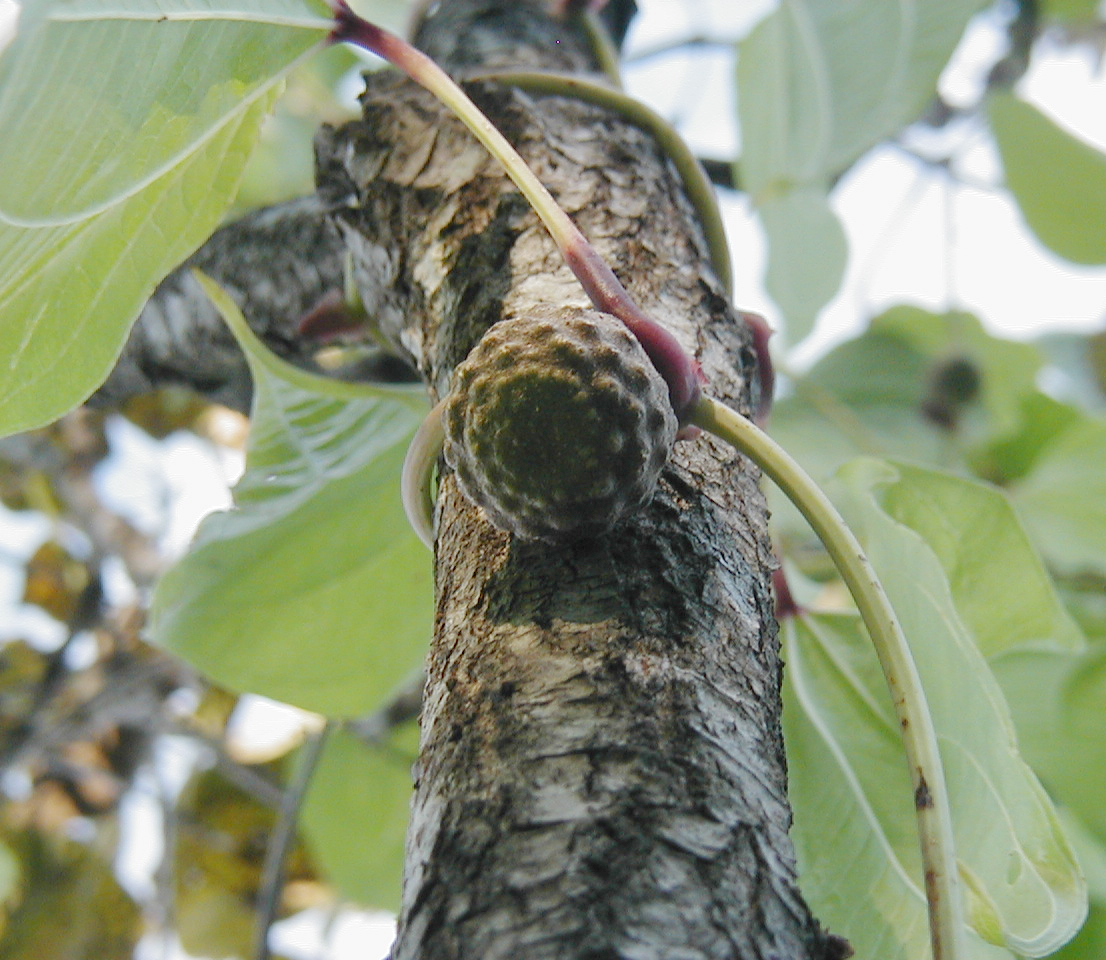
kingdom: Plantae
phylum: Tracheophyta
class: Liliopsida
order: Dioscoreales
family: Dioscoreaceae
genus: Dioscorea
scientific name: Dioscorea bulbifera
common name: Air yam
